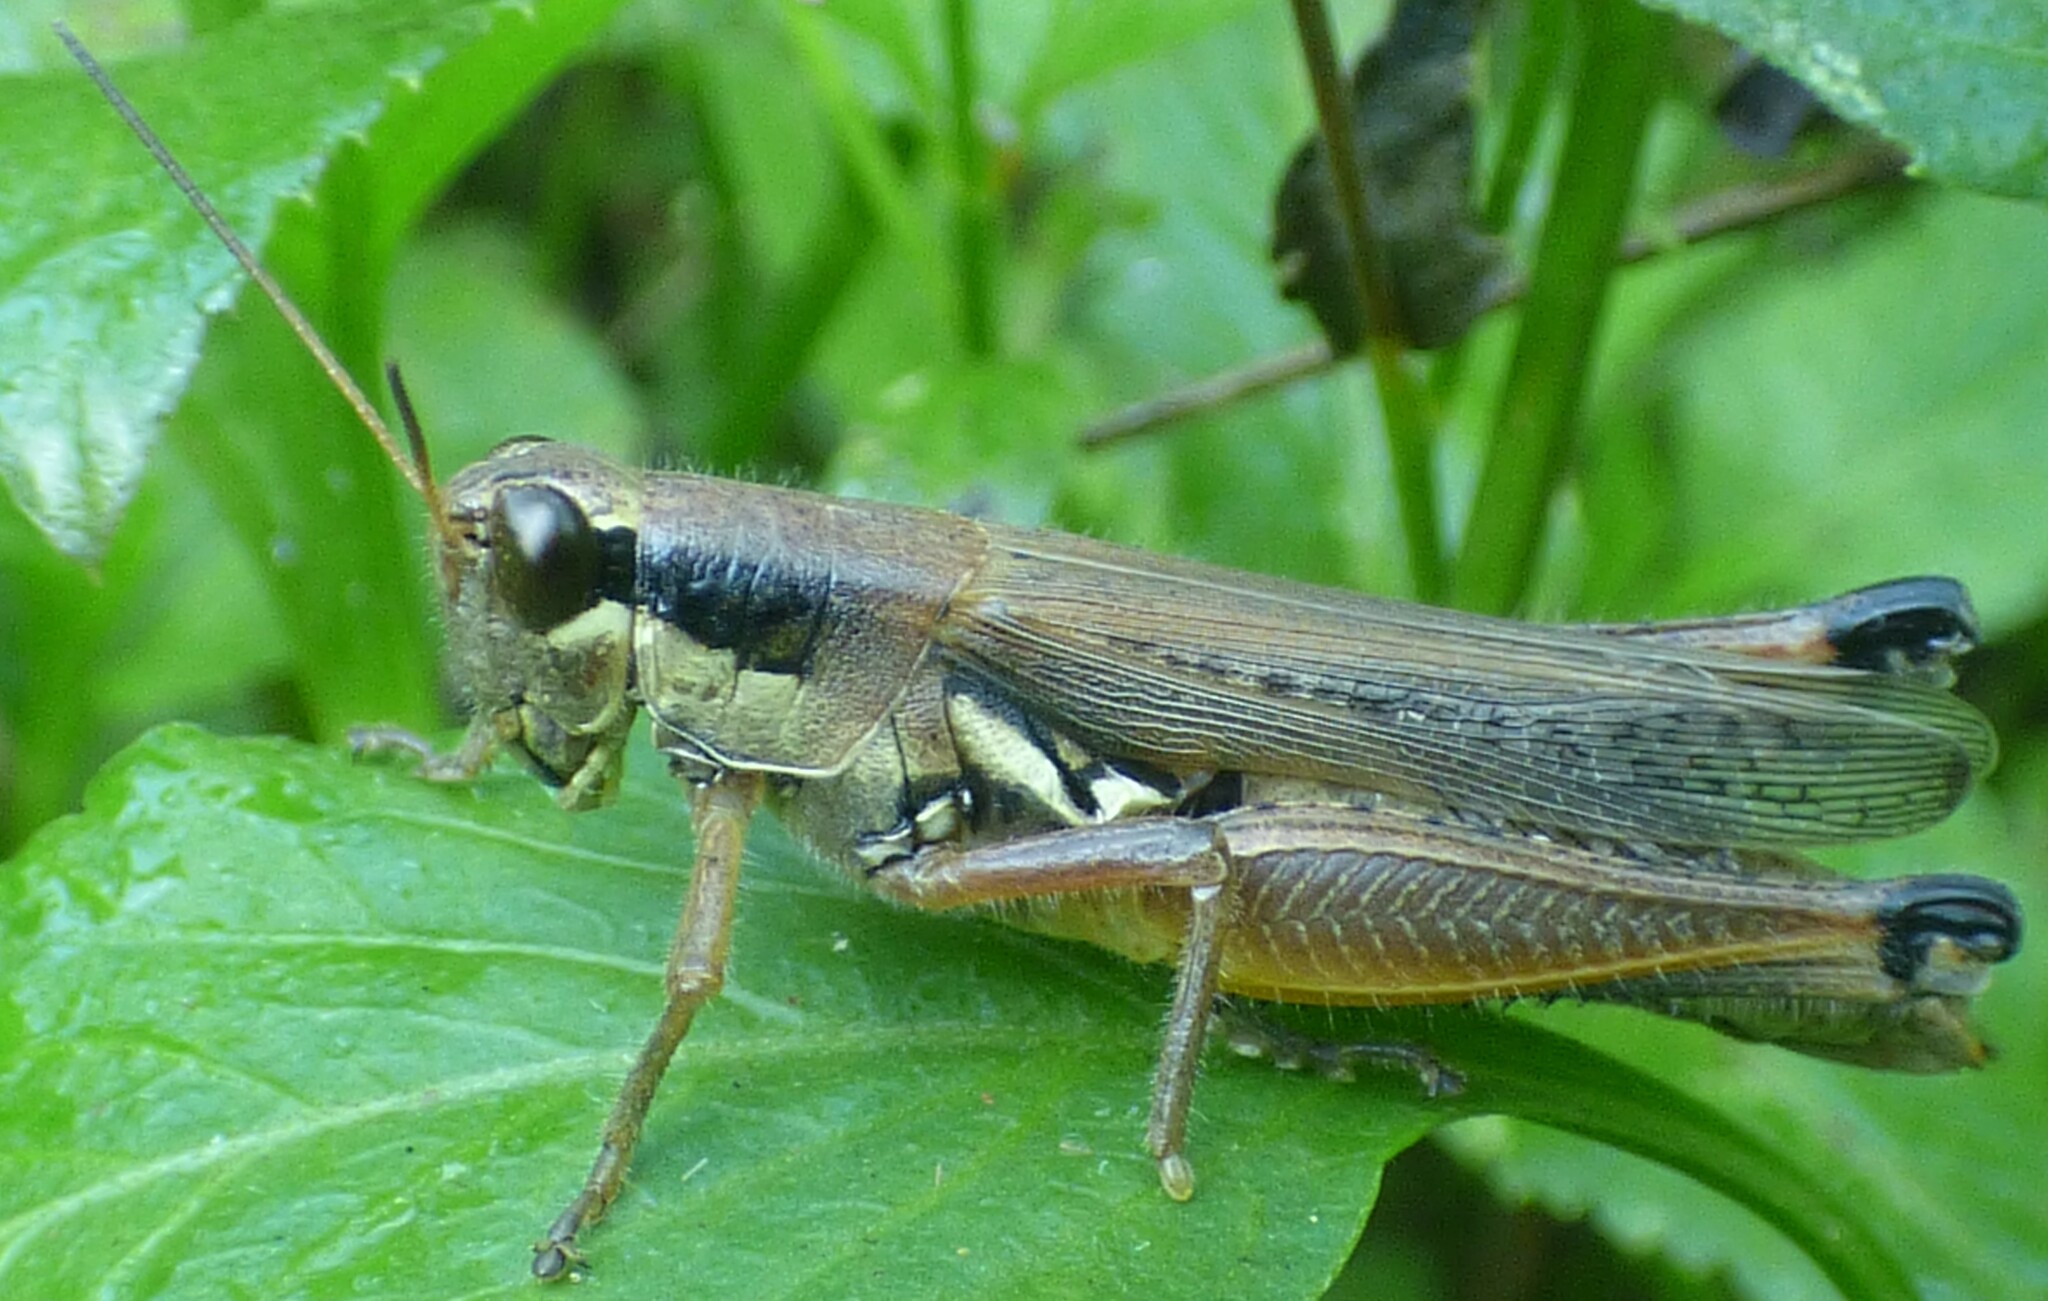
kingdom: Animalia
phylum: Arthropoda
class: Insecta
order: Orthoptera
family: Acrididae
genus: Paroxya
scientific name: Paroxya atlantica
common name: Atlantic grasshopper
